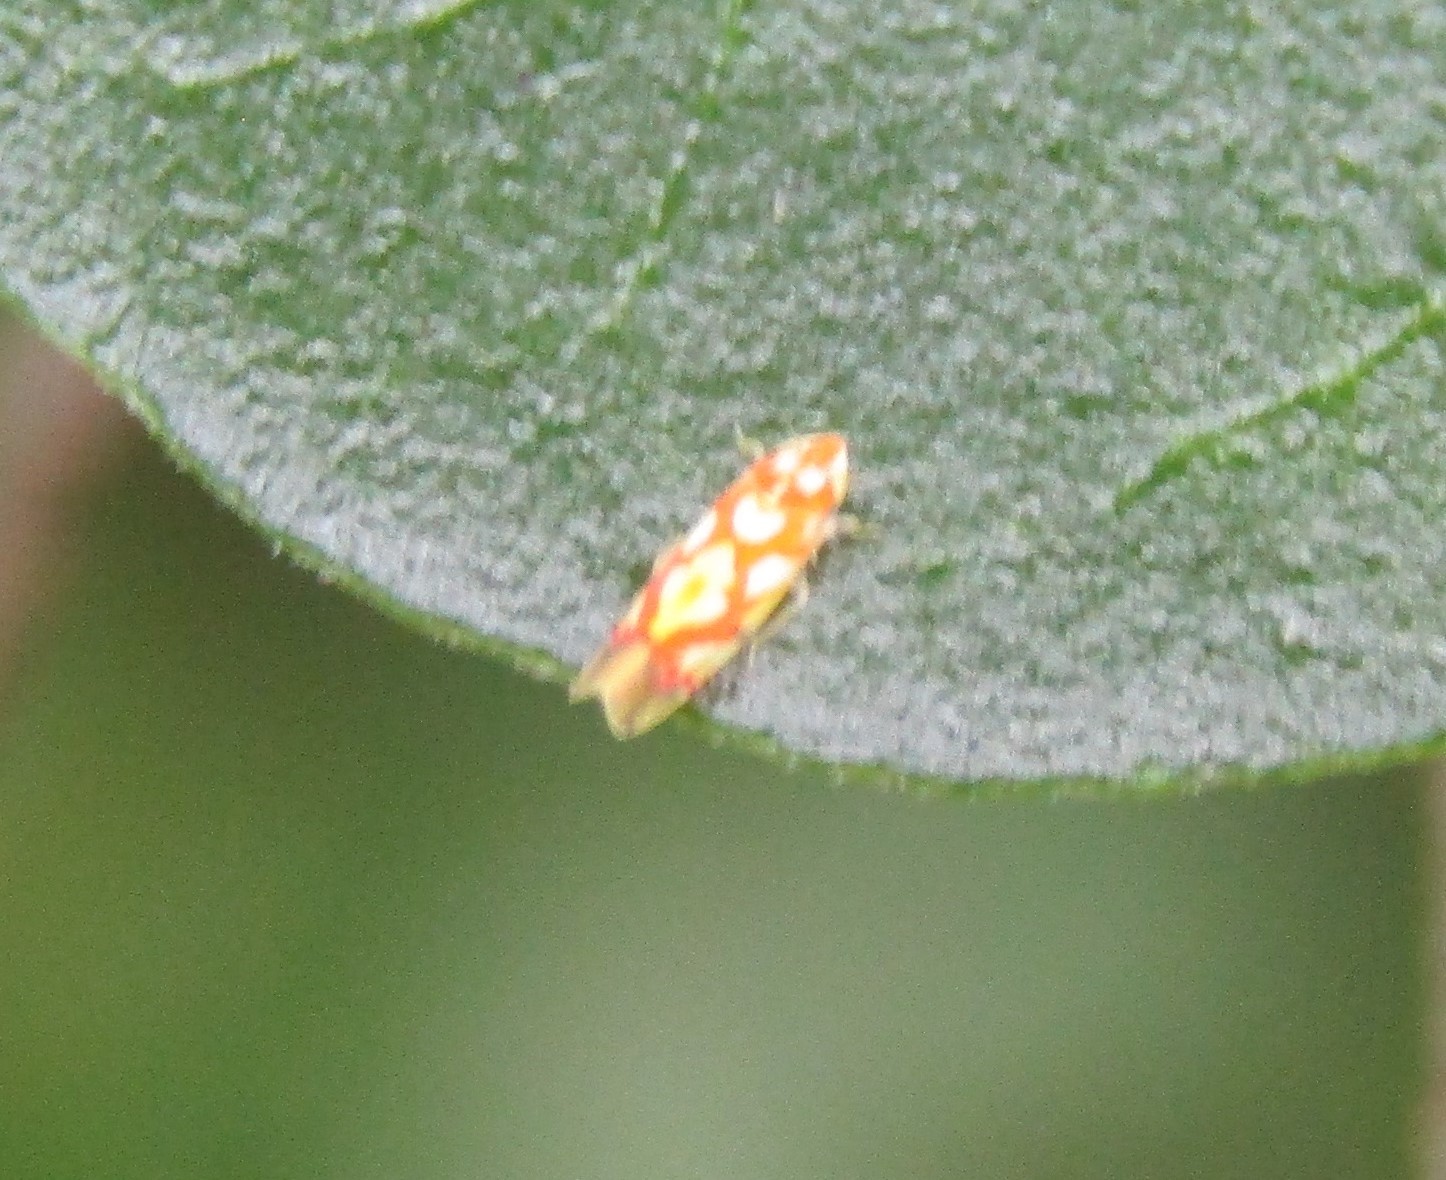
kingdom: Animalia
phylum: Arthropoda
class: Insecta
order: Hemiptera
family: Cicadellidae
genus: Erythroneura
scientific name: Erythroneura fraxa
